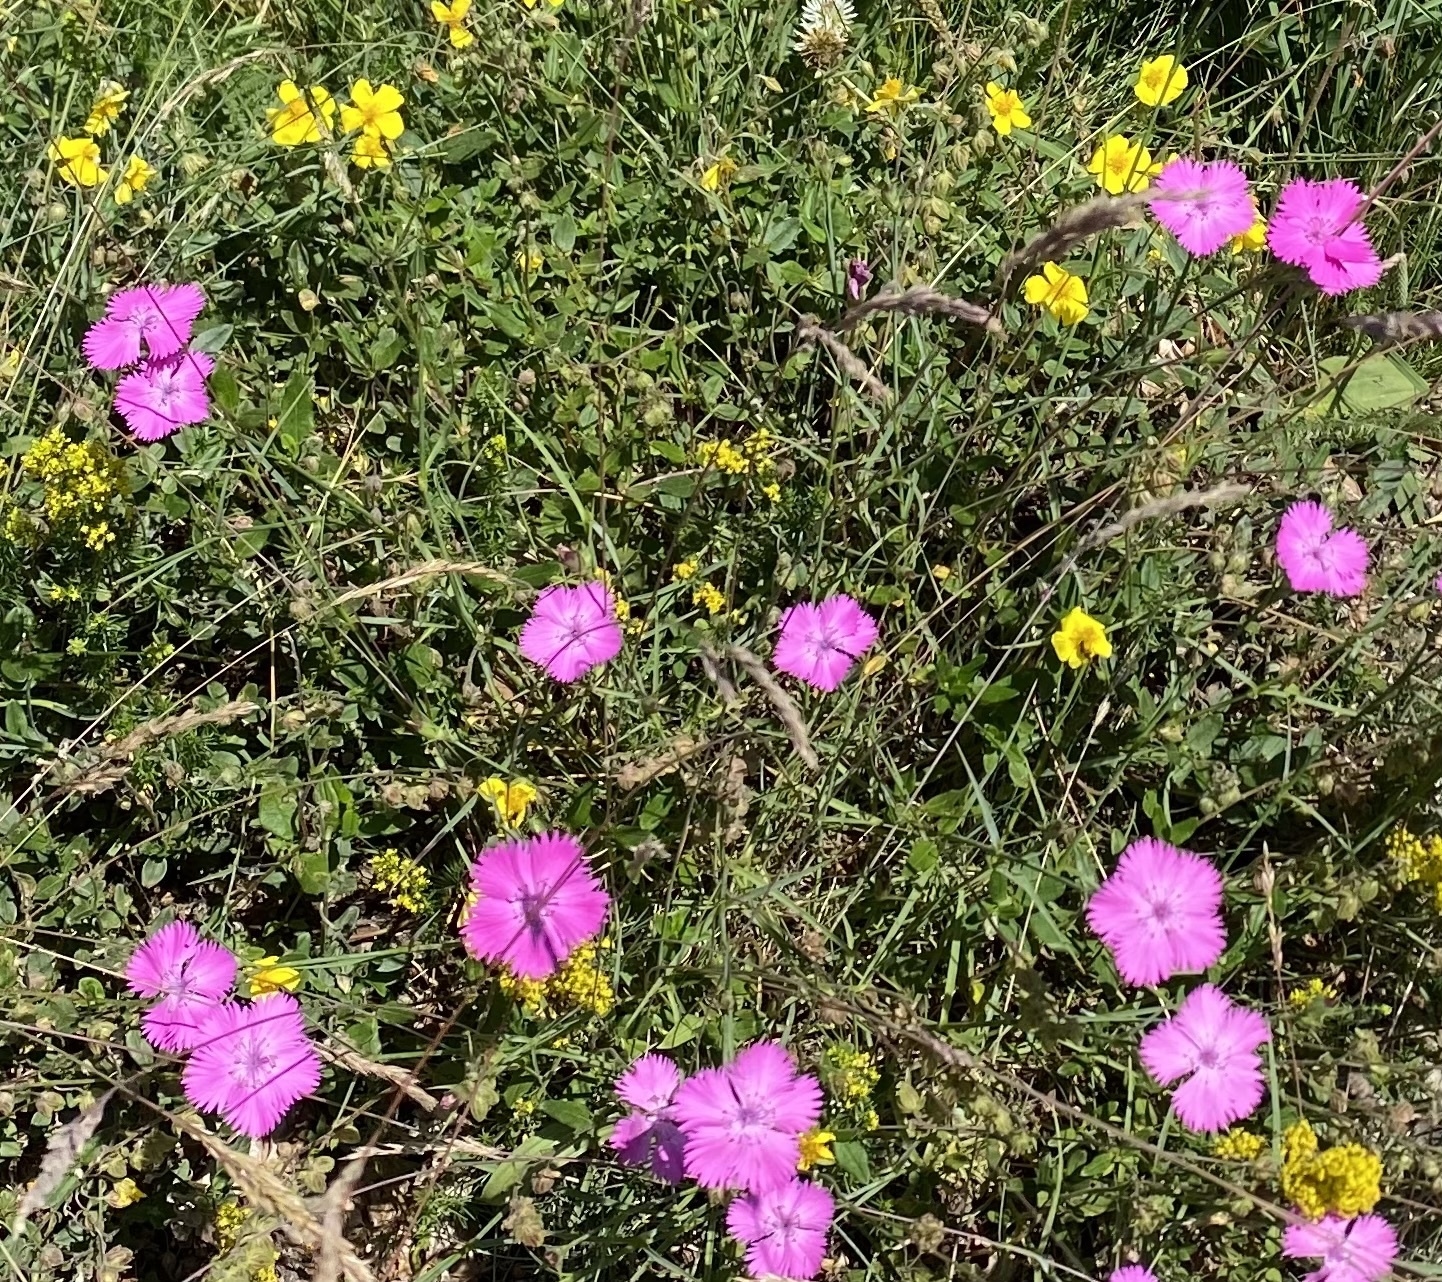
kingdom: Plantae
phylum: Tracheophyta
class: Magnoliopsida
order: Caryophyllales
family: Caryophyllaceae
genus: Dianthus
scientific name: Dianthus seguieri
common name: Ragged pink
